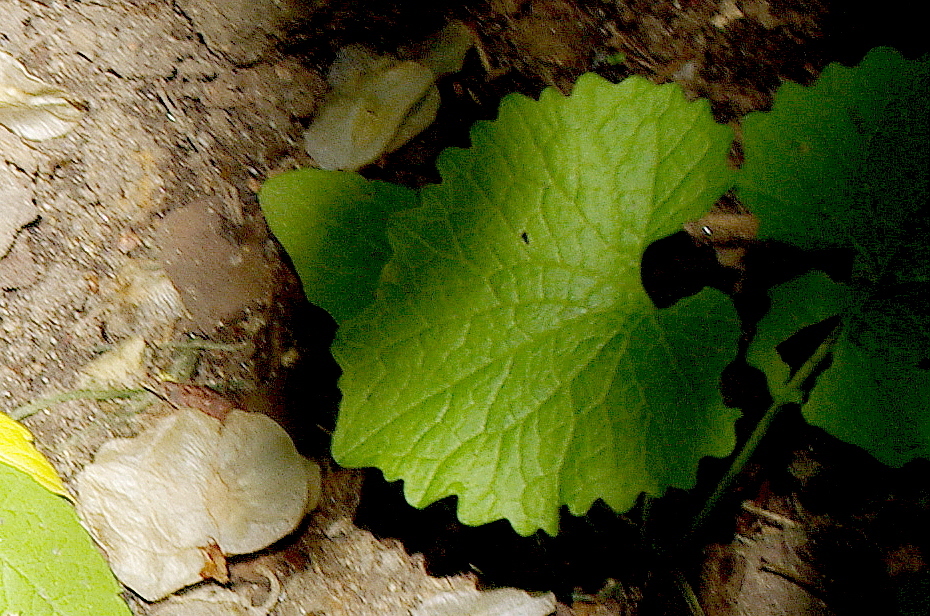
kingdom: Plantae
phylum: Tracheophyta
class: Magnoliopsida
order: Brassicales
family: Brassicaceae
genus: Alliaria
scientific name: Alliaria petiolata
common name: Garlic mustard
